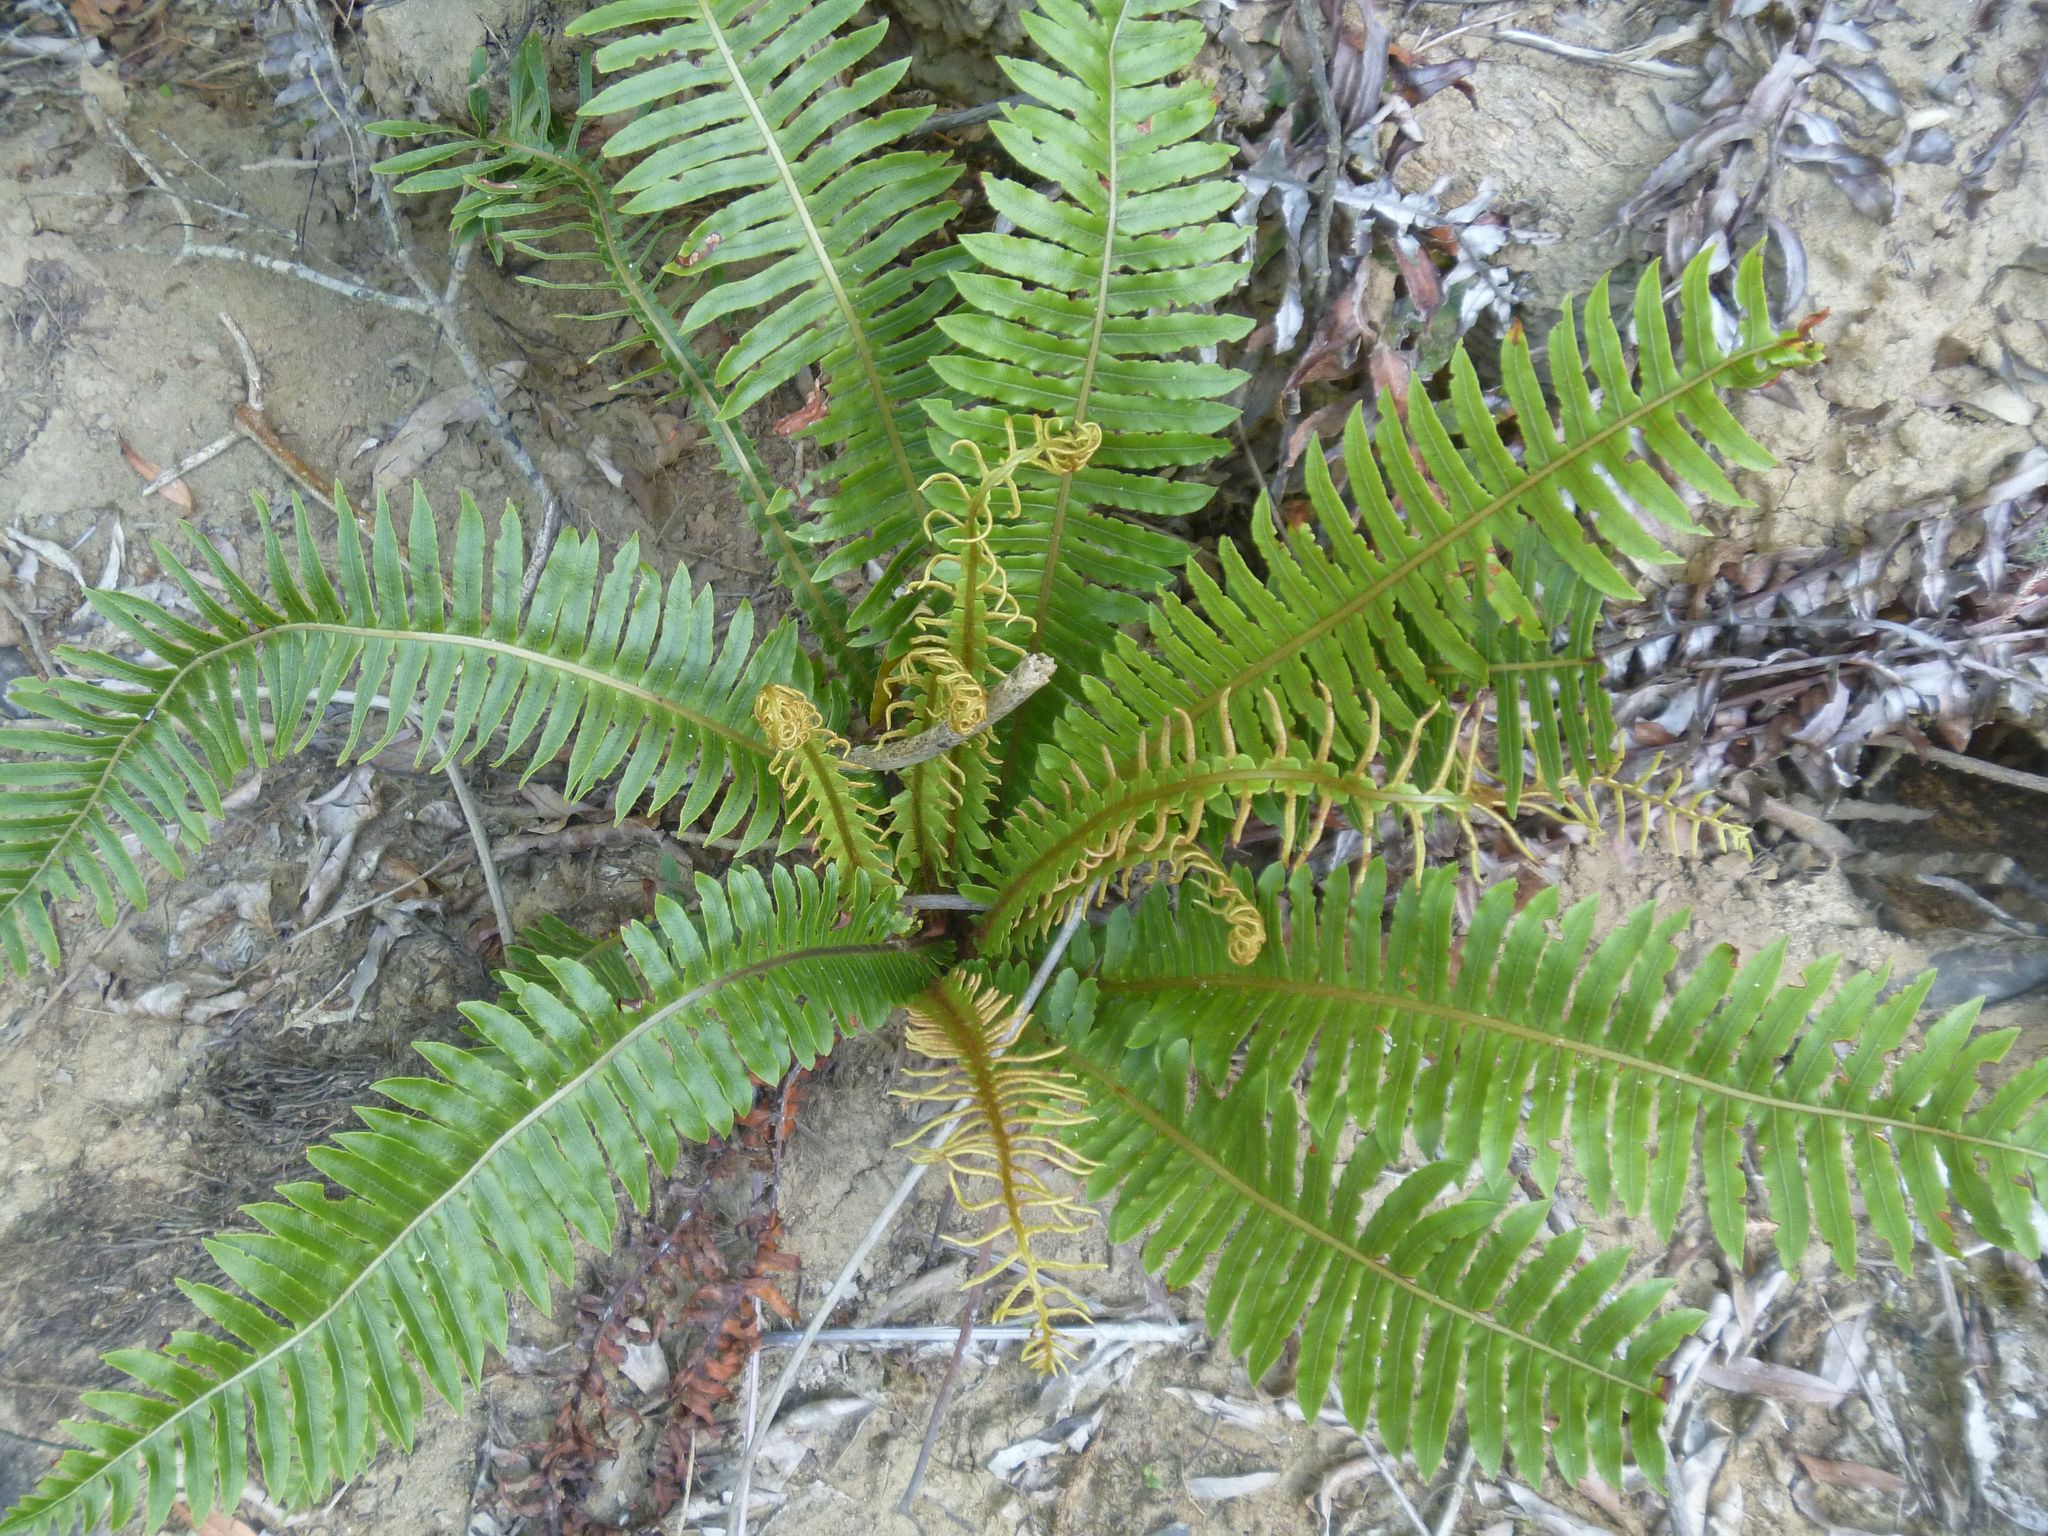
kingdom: Plantae
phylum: Tracheophyta
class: Polypodiopsida
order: Polypodiales
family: Blechnaceae
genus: Lomaria
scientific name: Lomaria discolor
